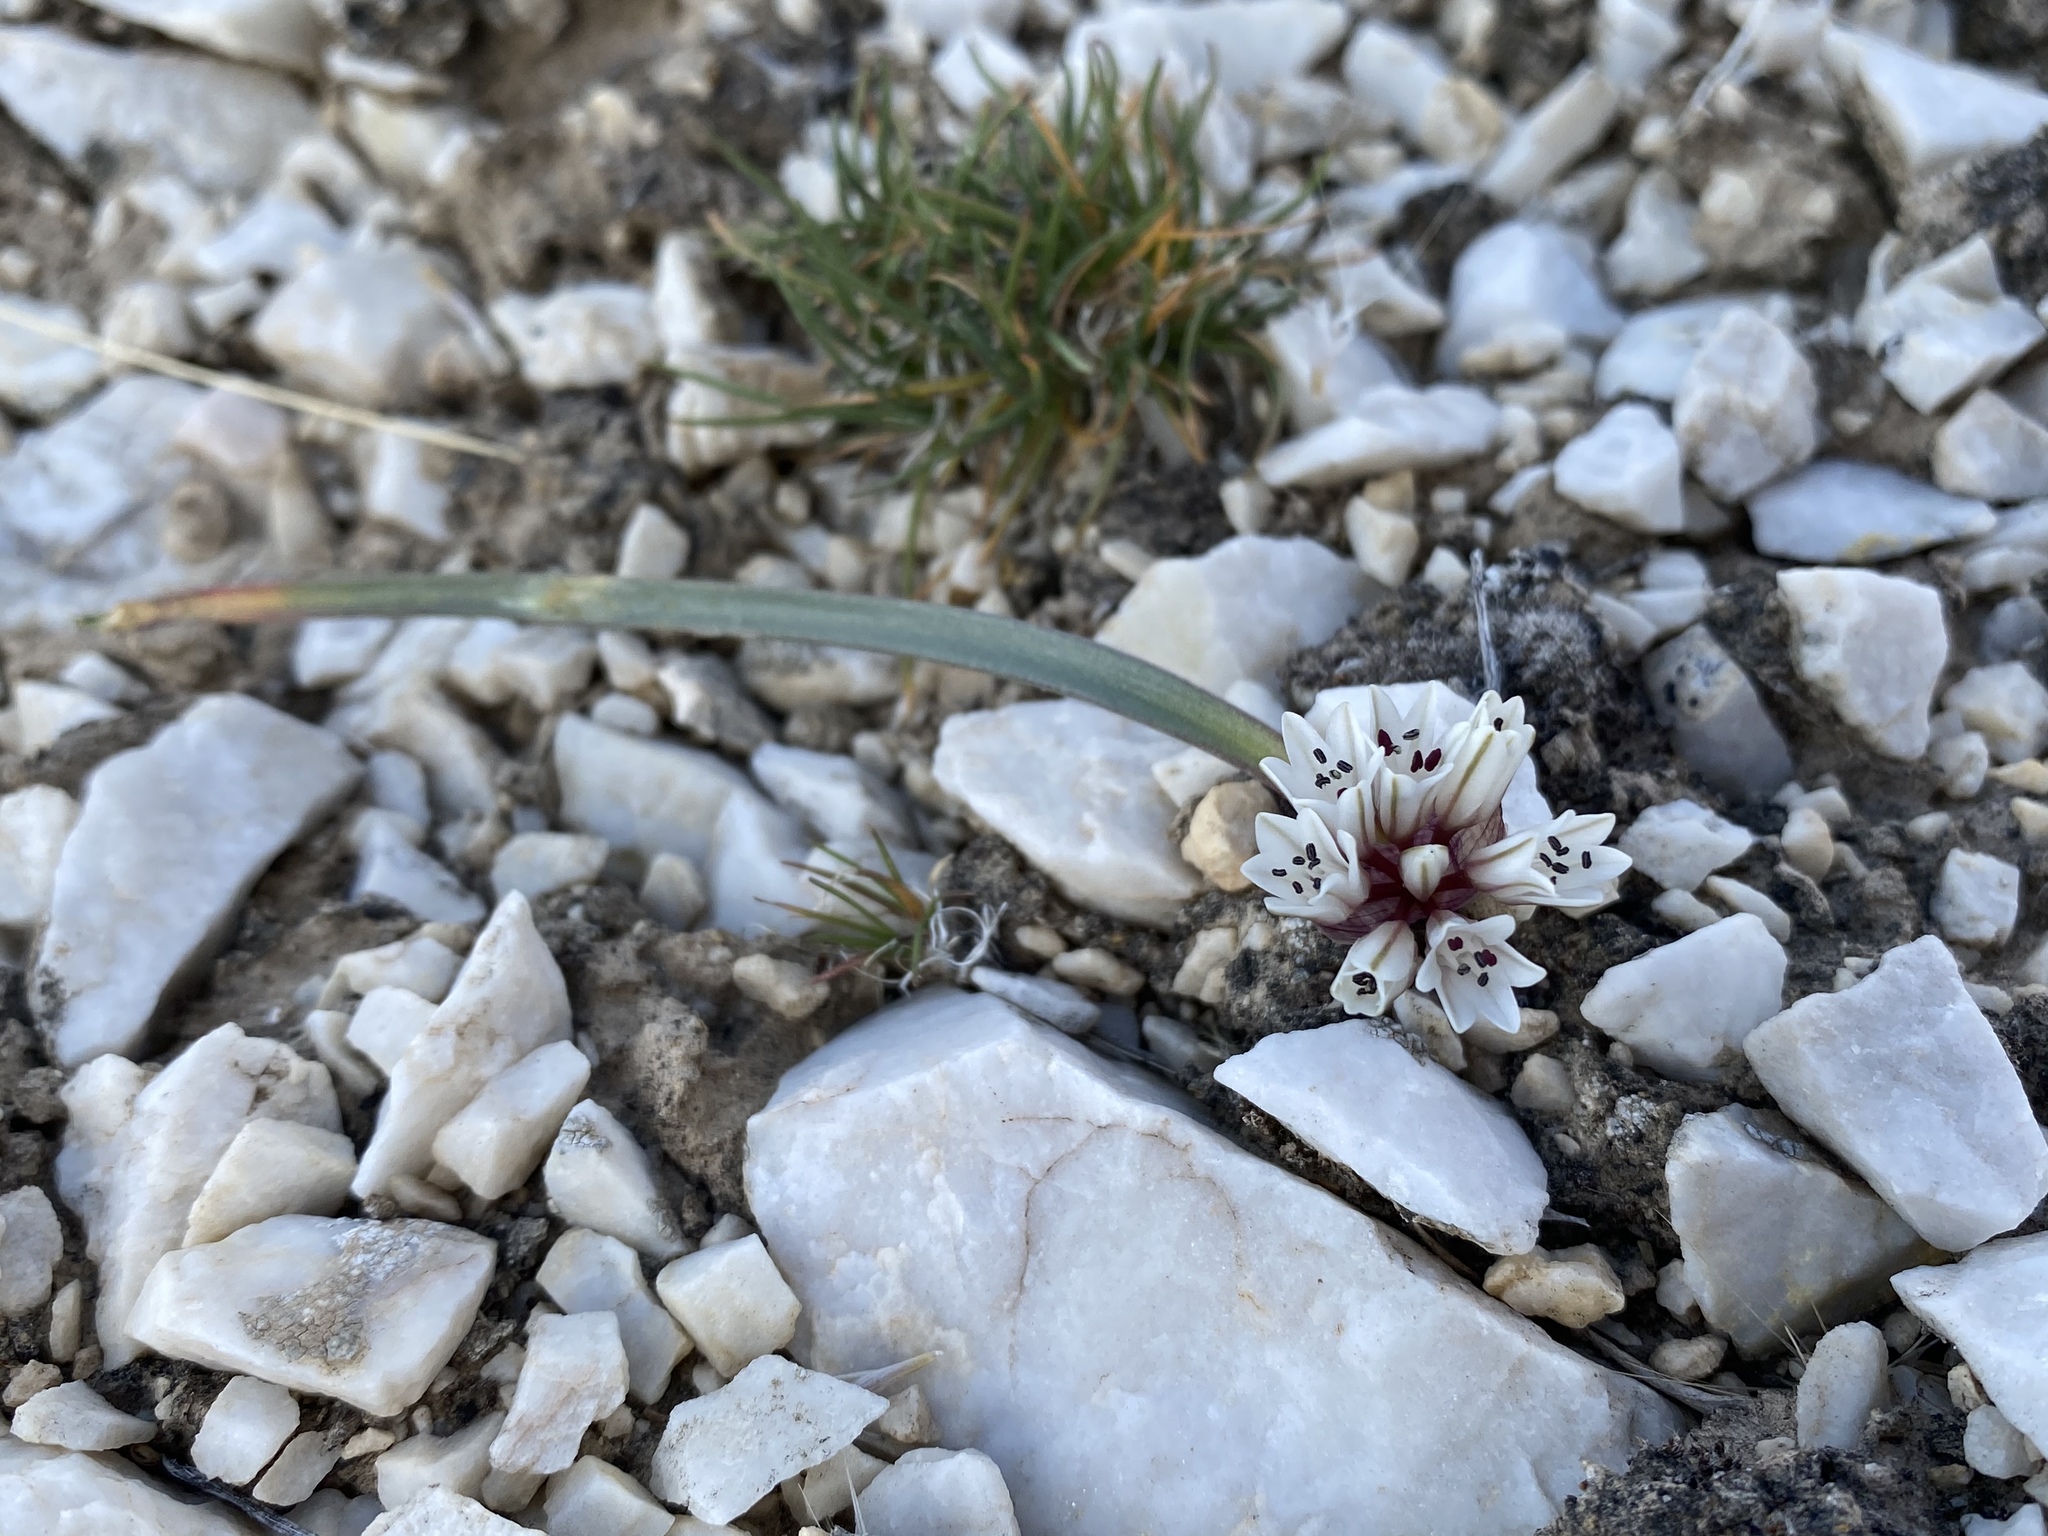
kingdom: Plantae
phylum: Tracheophyta
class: Liliopsida
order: Asparagales
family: Amaryllidaceae
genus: Allium
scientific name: Allium parvum
